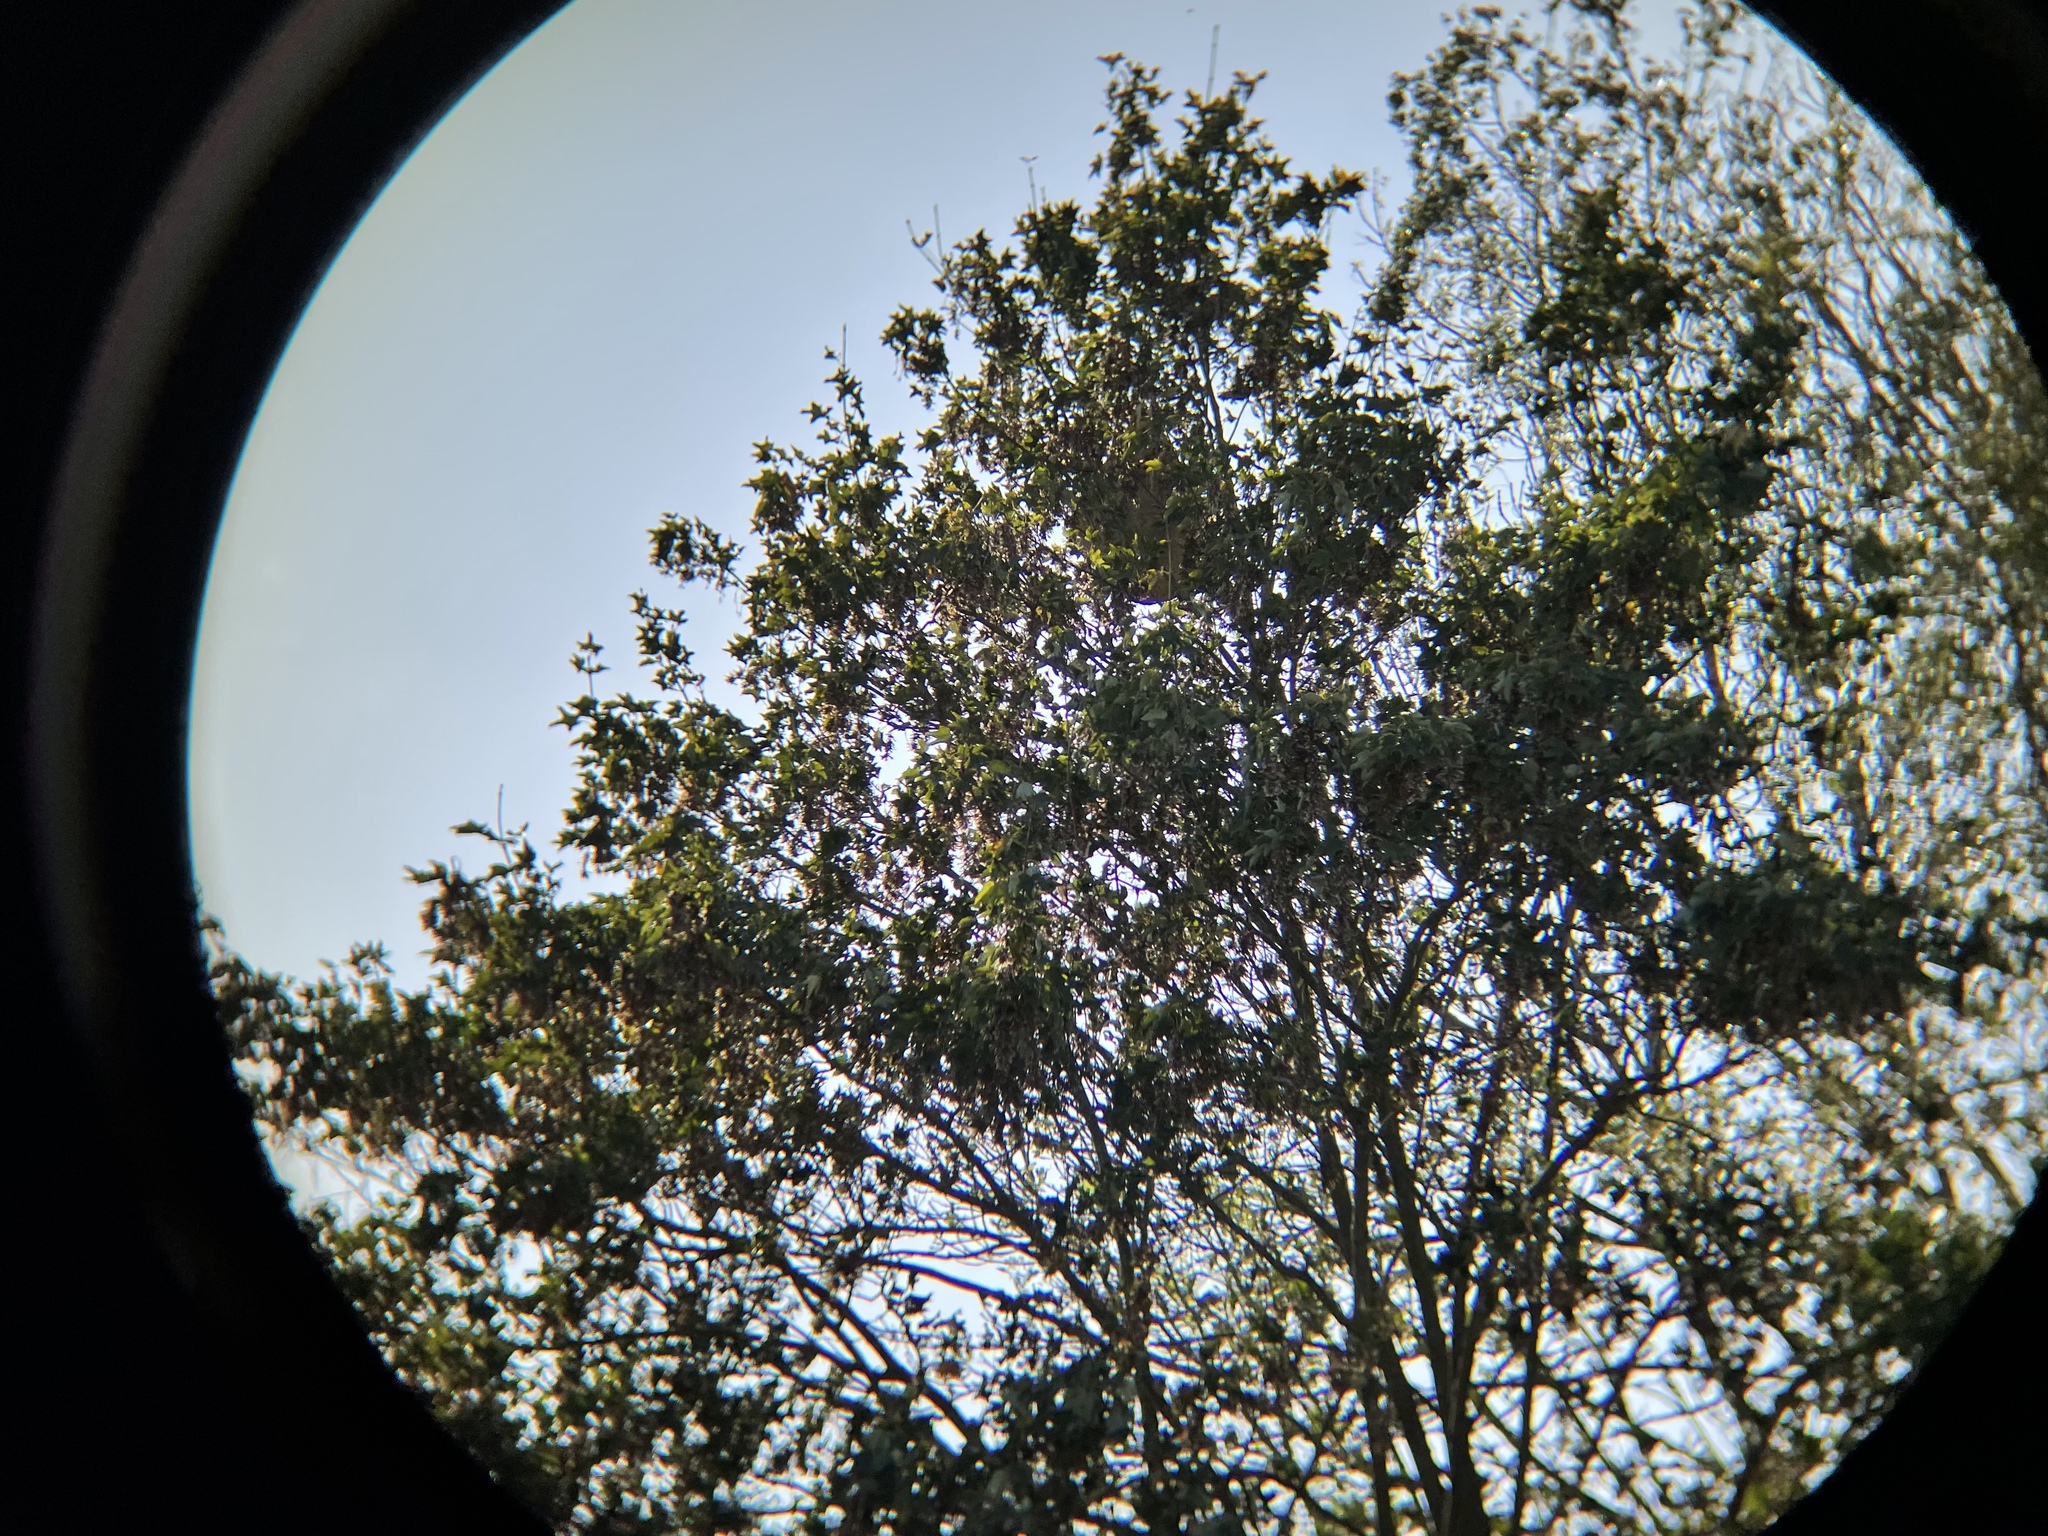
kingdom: Animalia
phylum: Arthropoda
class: Insecta
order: Hymenoptera
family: Vespidae
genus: Vespa
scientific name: Vespa velutina
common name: Asian hornet
